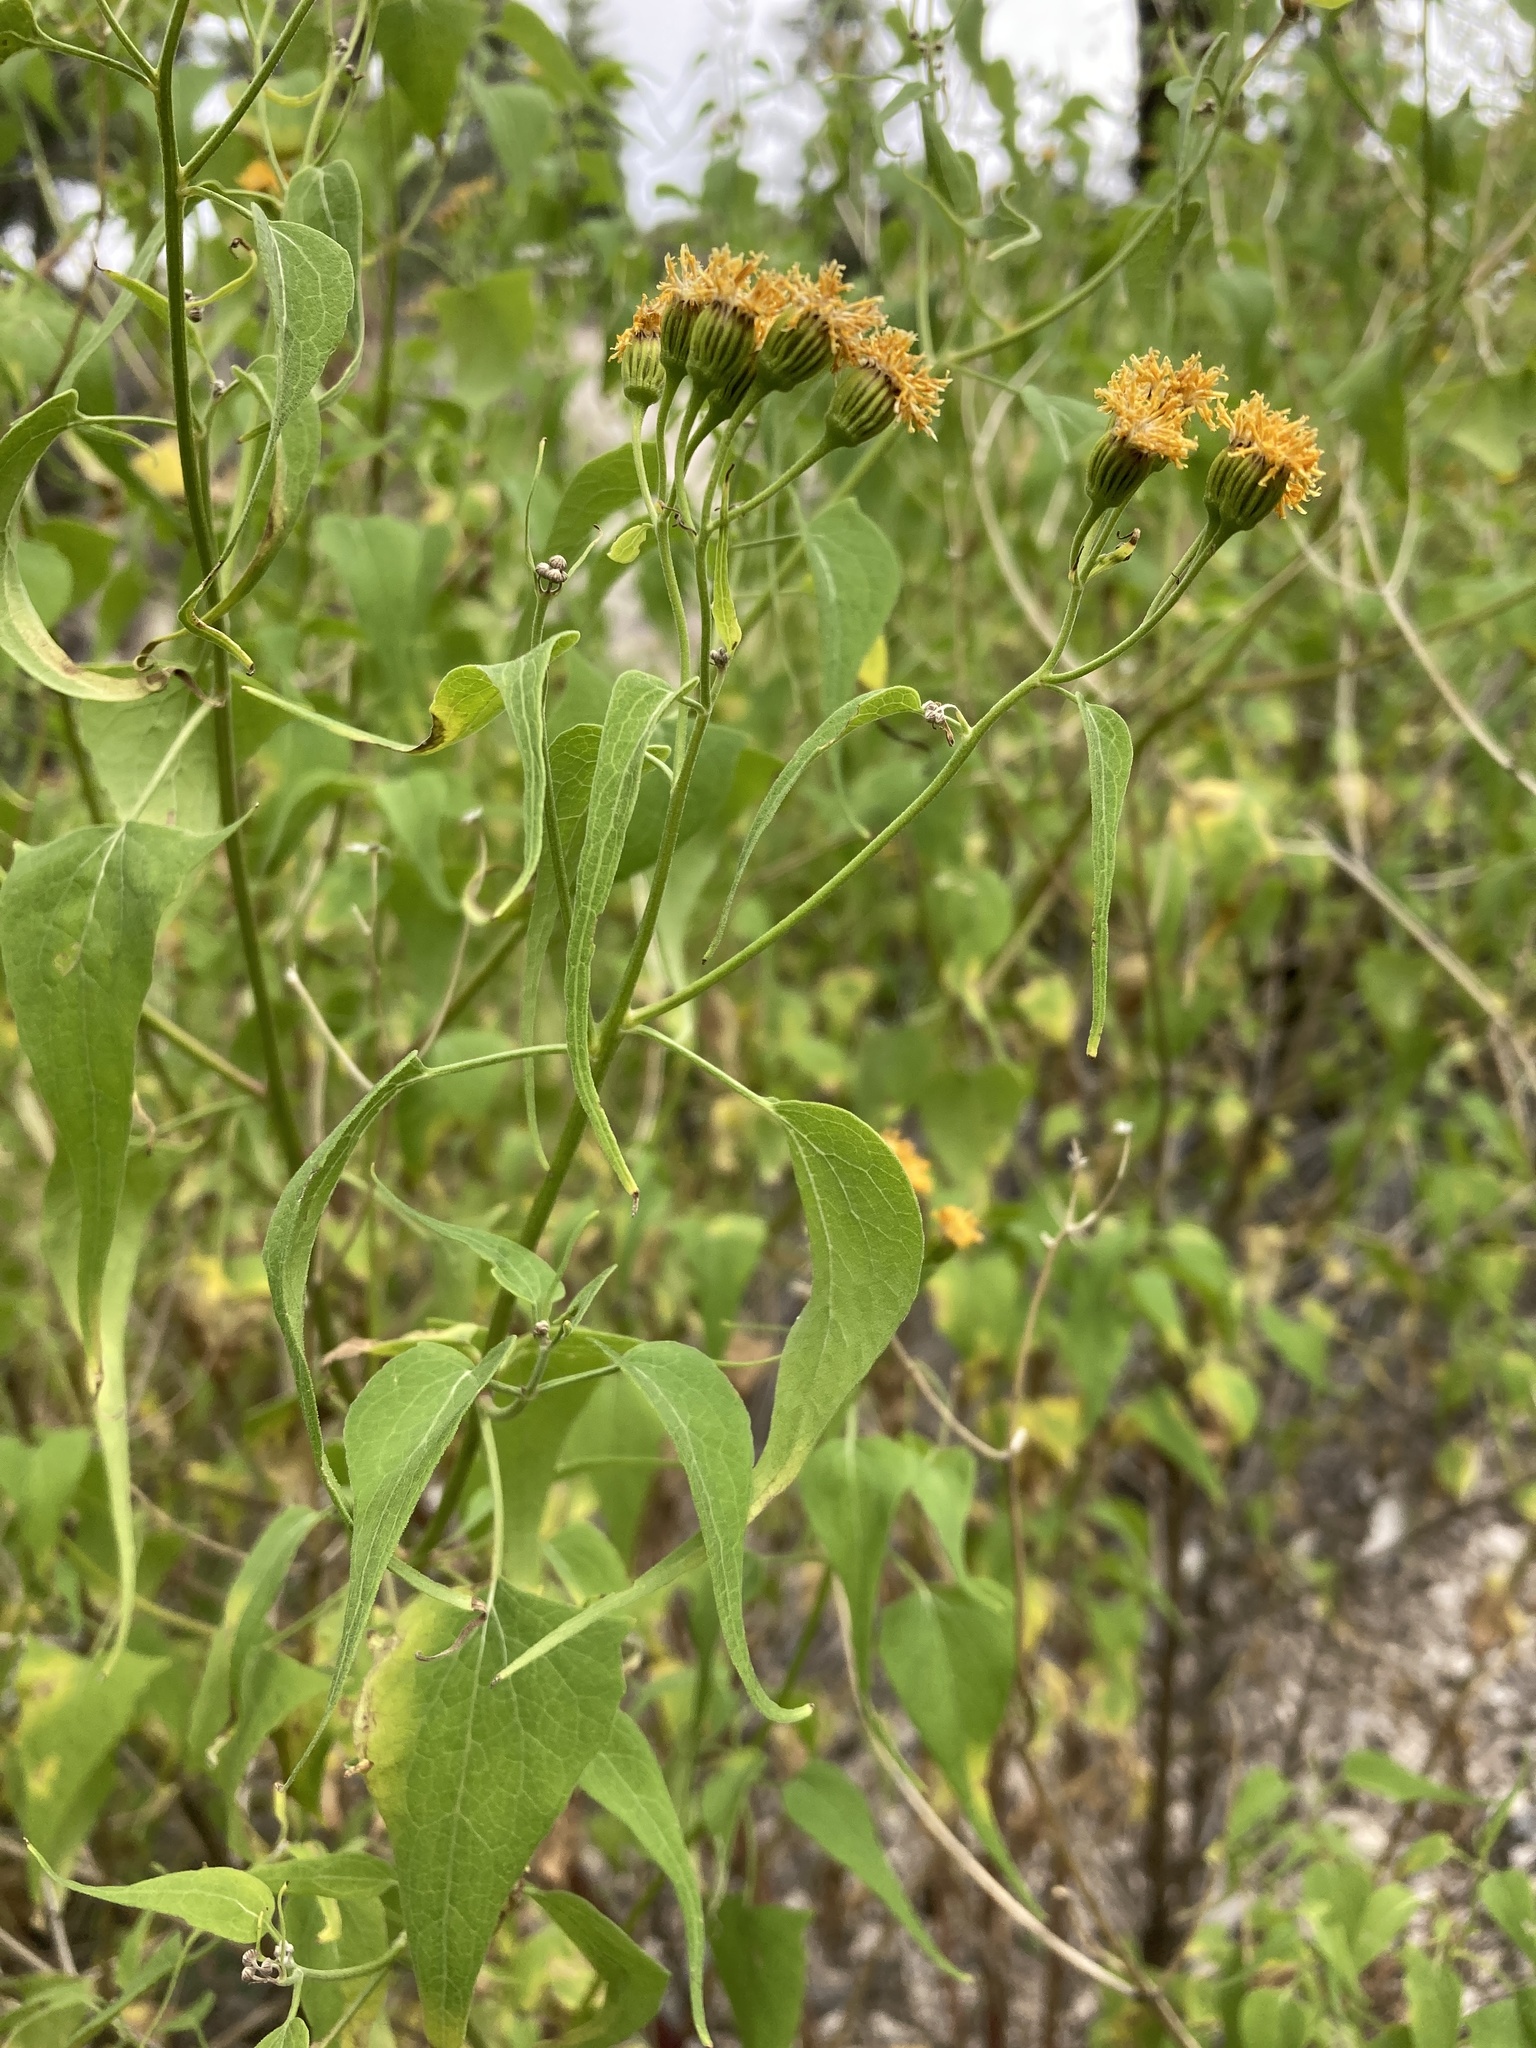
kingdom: Plantae
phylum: Tracheophyta
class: Magnoliopsida
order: Asterales
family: Asteraceae
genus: Pericome
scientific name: Pericome caudata
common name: Taperleaf
